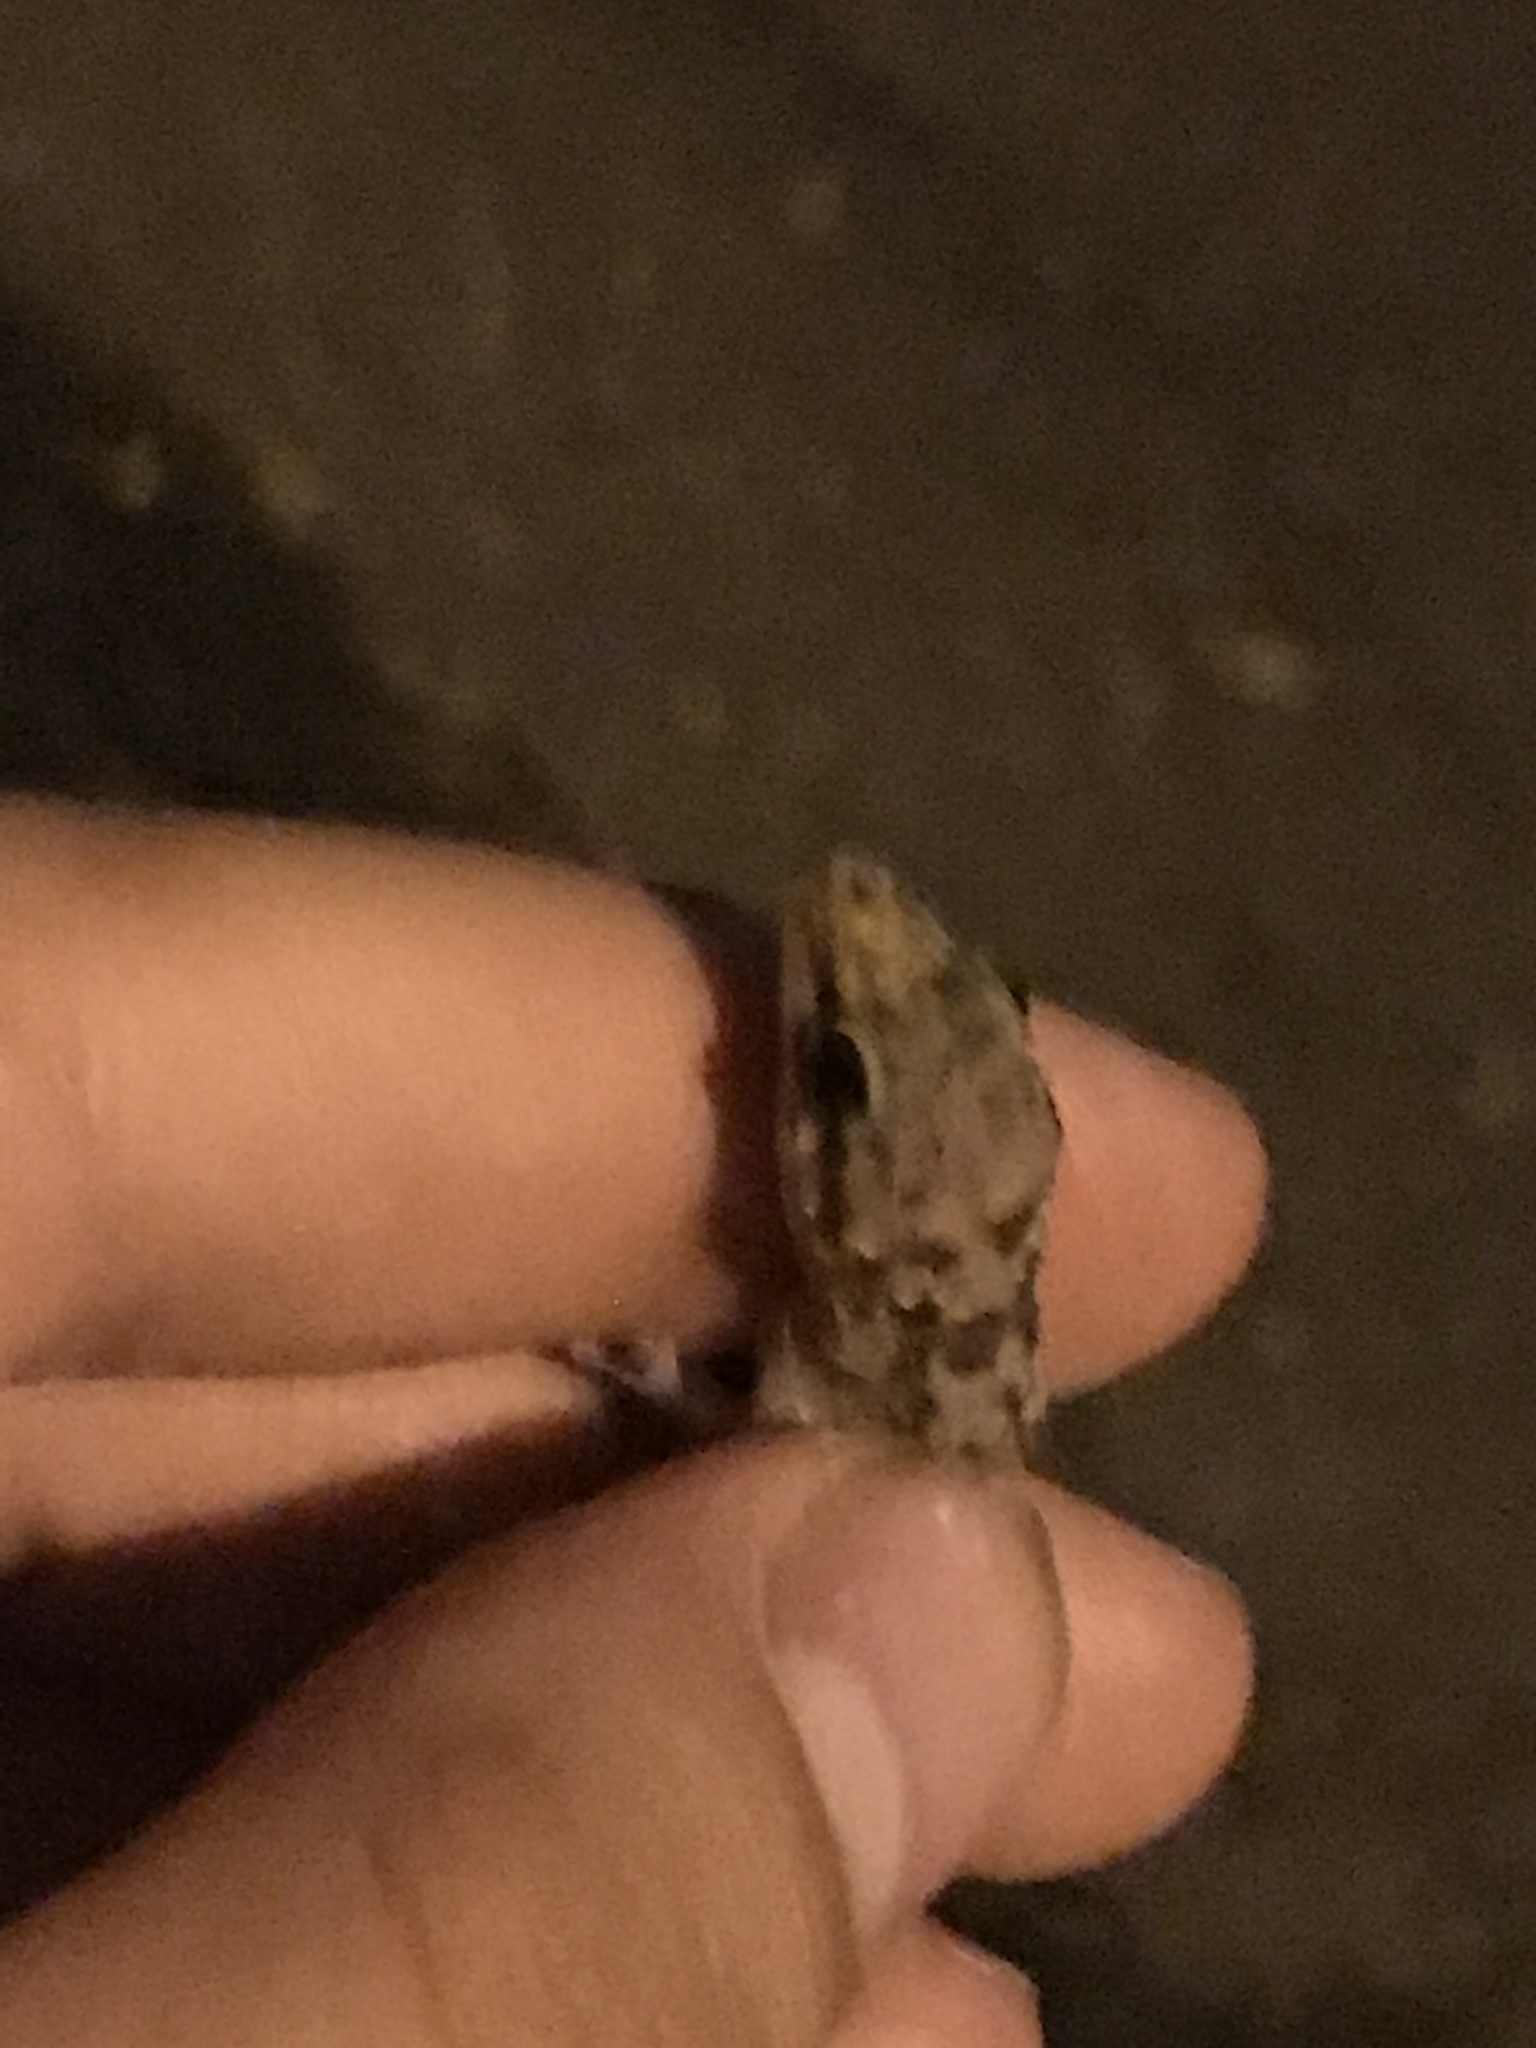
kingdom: Animalia
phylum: Chordata
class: Squamata
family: Gekkonidae
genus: Hemidactylus
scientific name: Hemidactylus turcicus
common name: Turkish gecko
